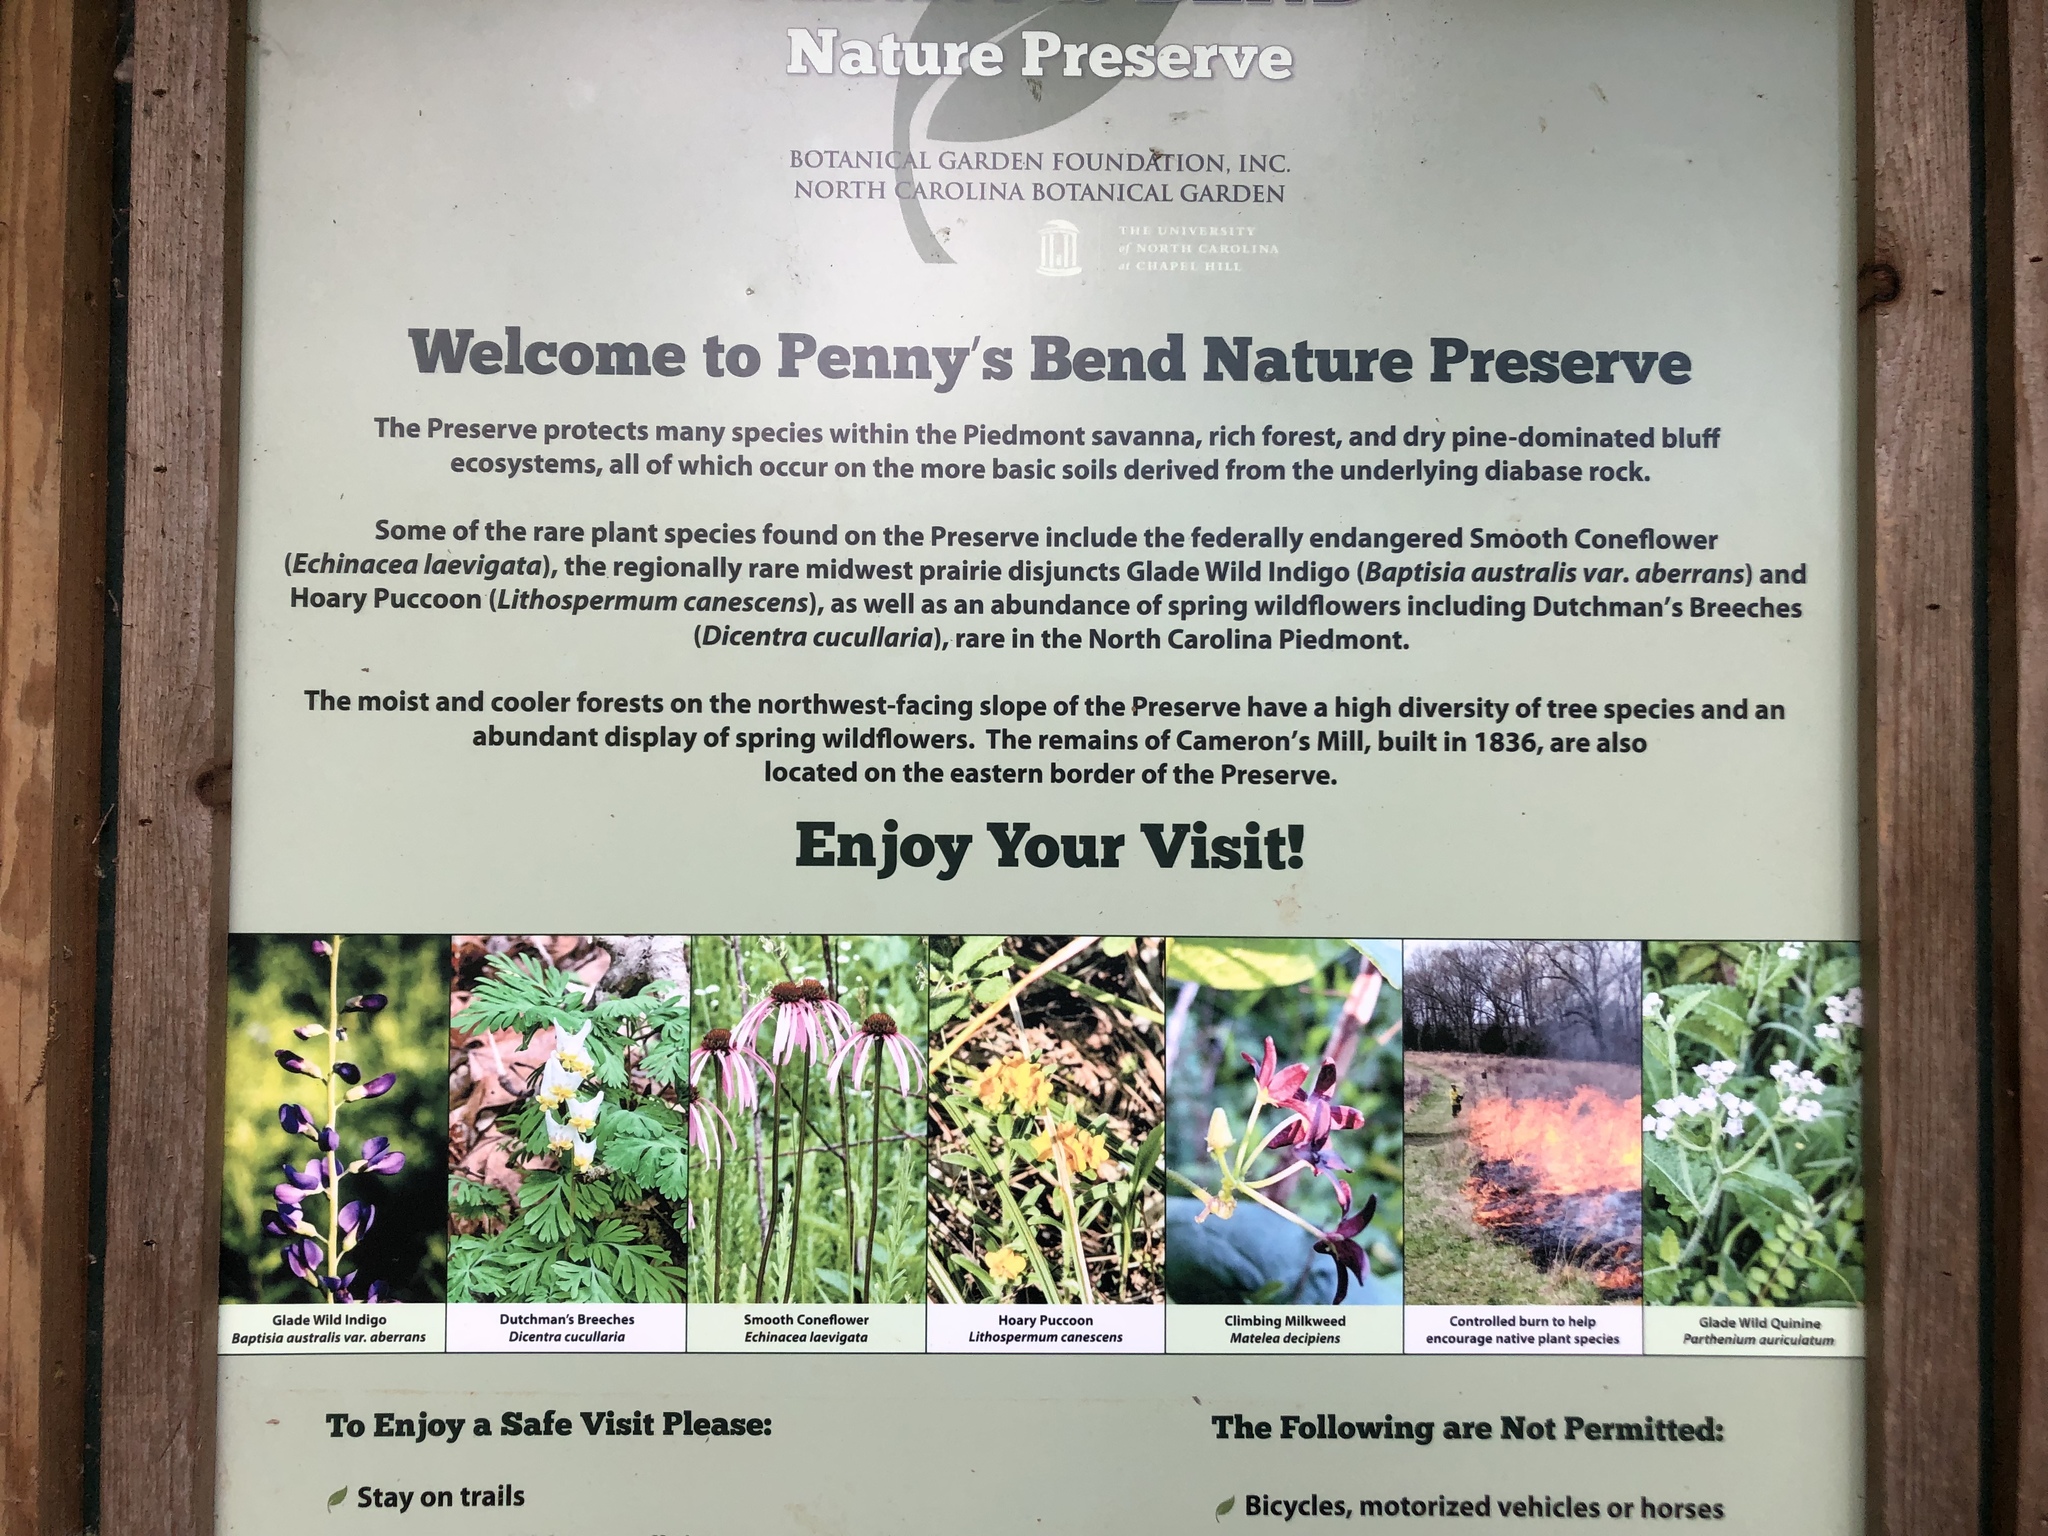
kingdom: Plantae
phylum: Tracheophyta
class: Magnoliopsida
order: Asterales
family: Asteraceae
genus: Parthenium
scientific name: Parthenium auriculatum
